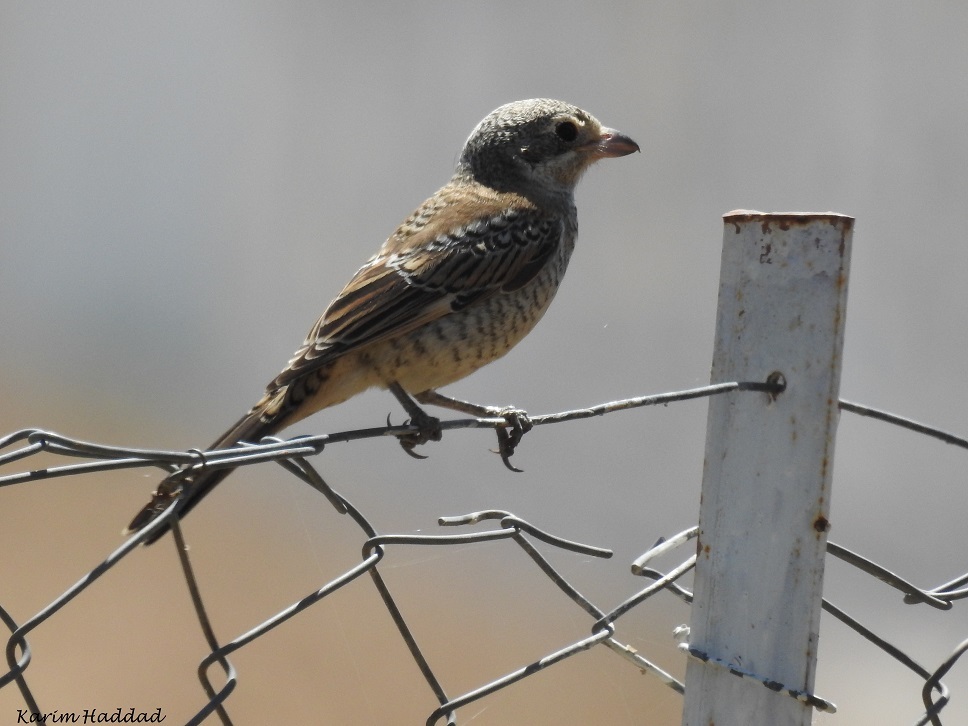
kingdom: Animalia
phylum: Chordata
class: Aves
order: Passeriformes
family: Laniidae
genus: Lanius
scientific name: Lanius senator
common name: Woodchat shrike
